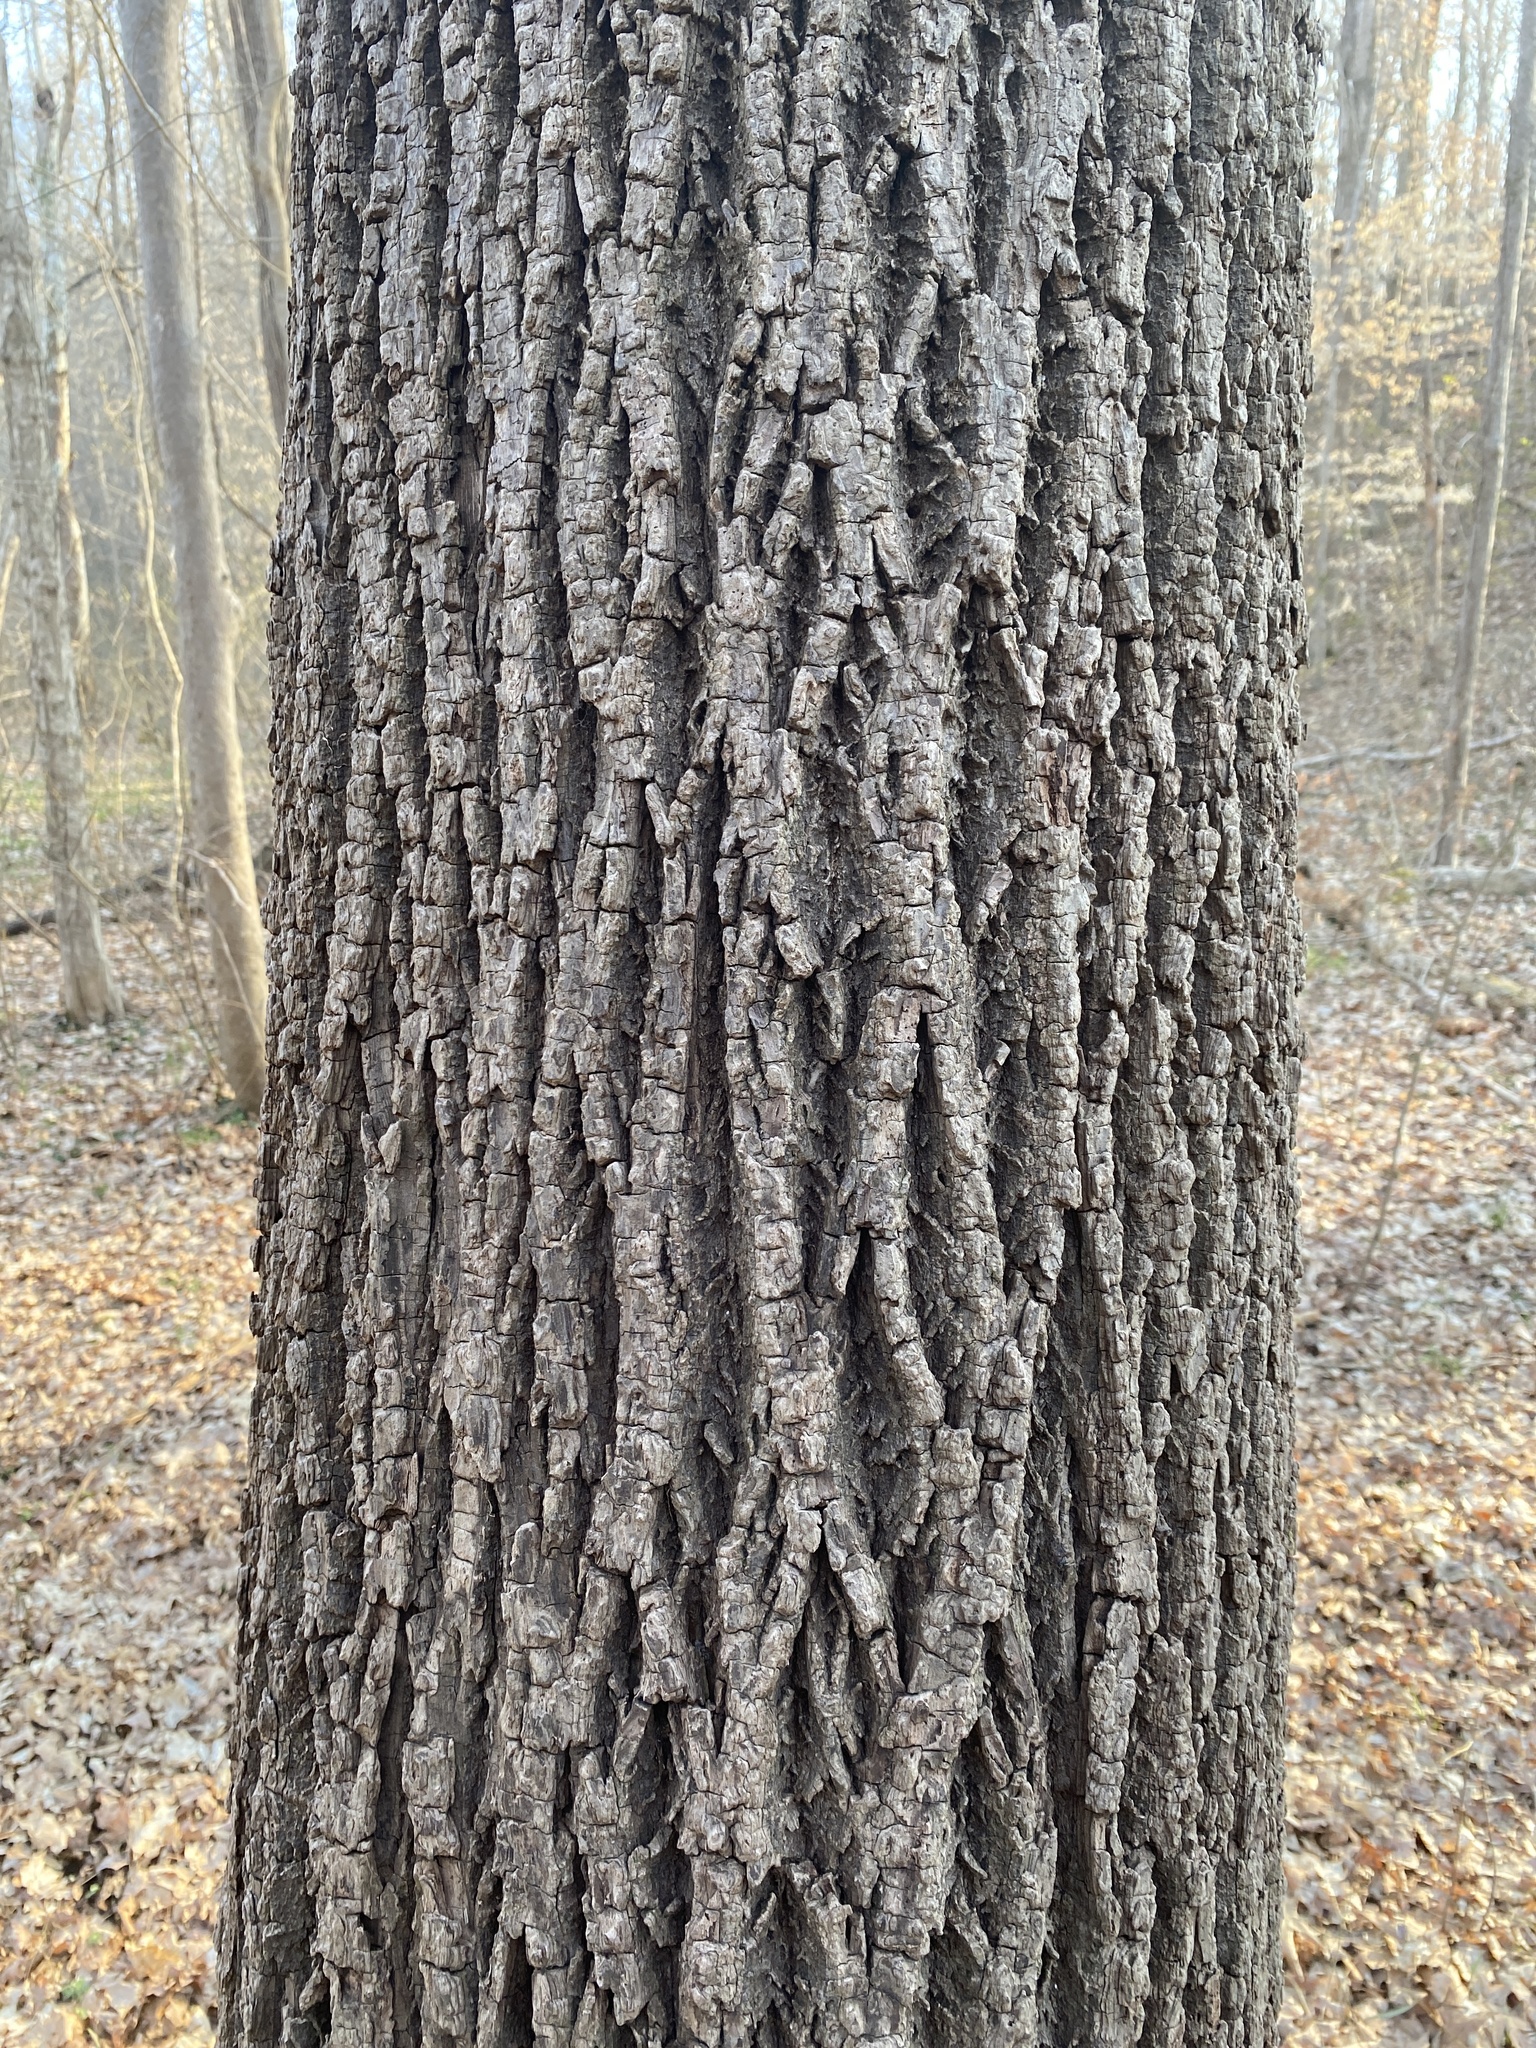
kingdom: Plantae
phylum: Tracheophyta
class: Magnoliopsida
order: Fagales
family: Juglandaceae
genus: Juglans
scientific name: Juglans nigra
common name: Black walnut
